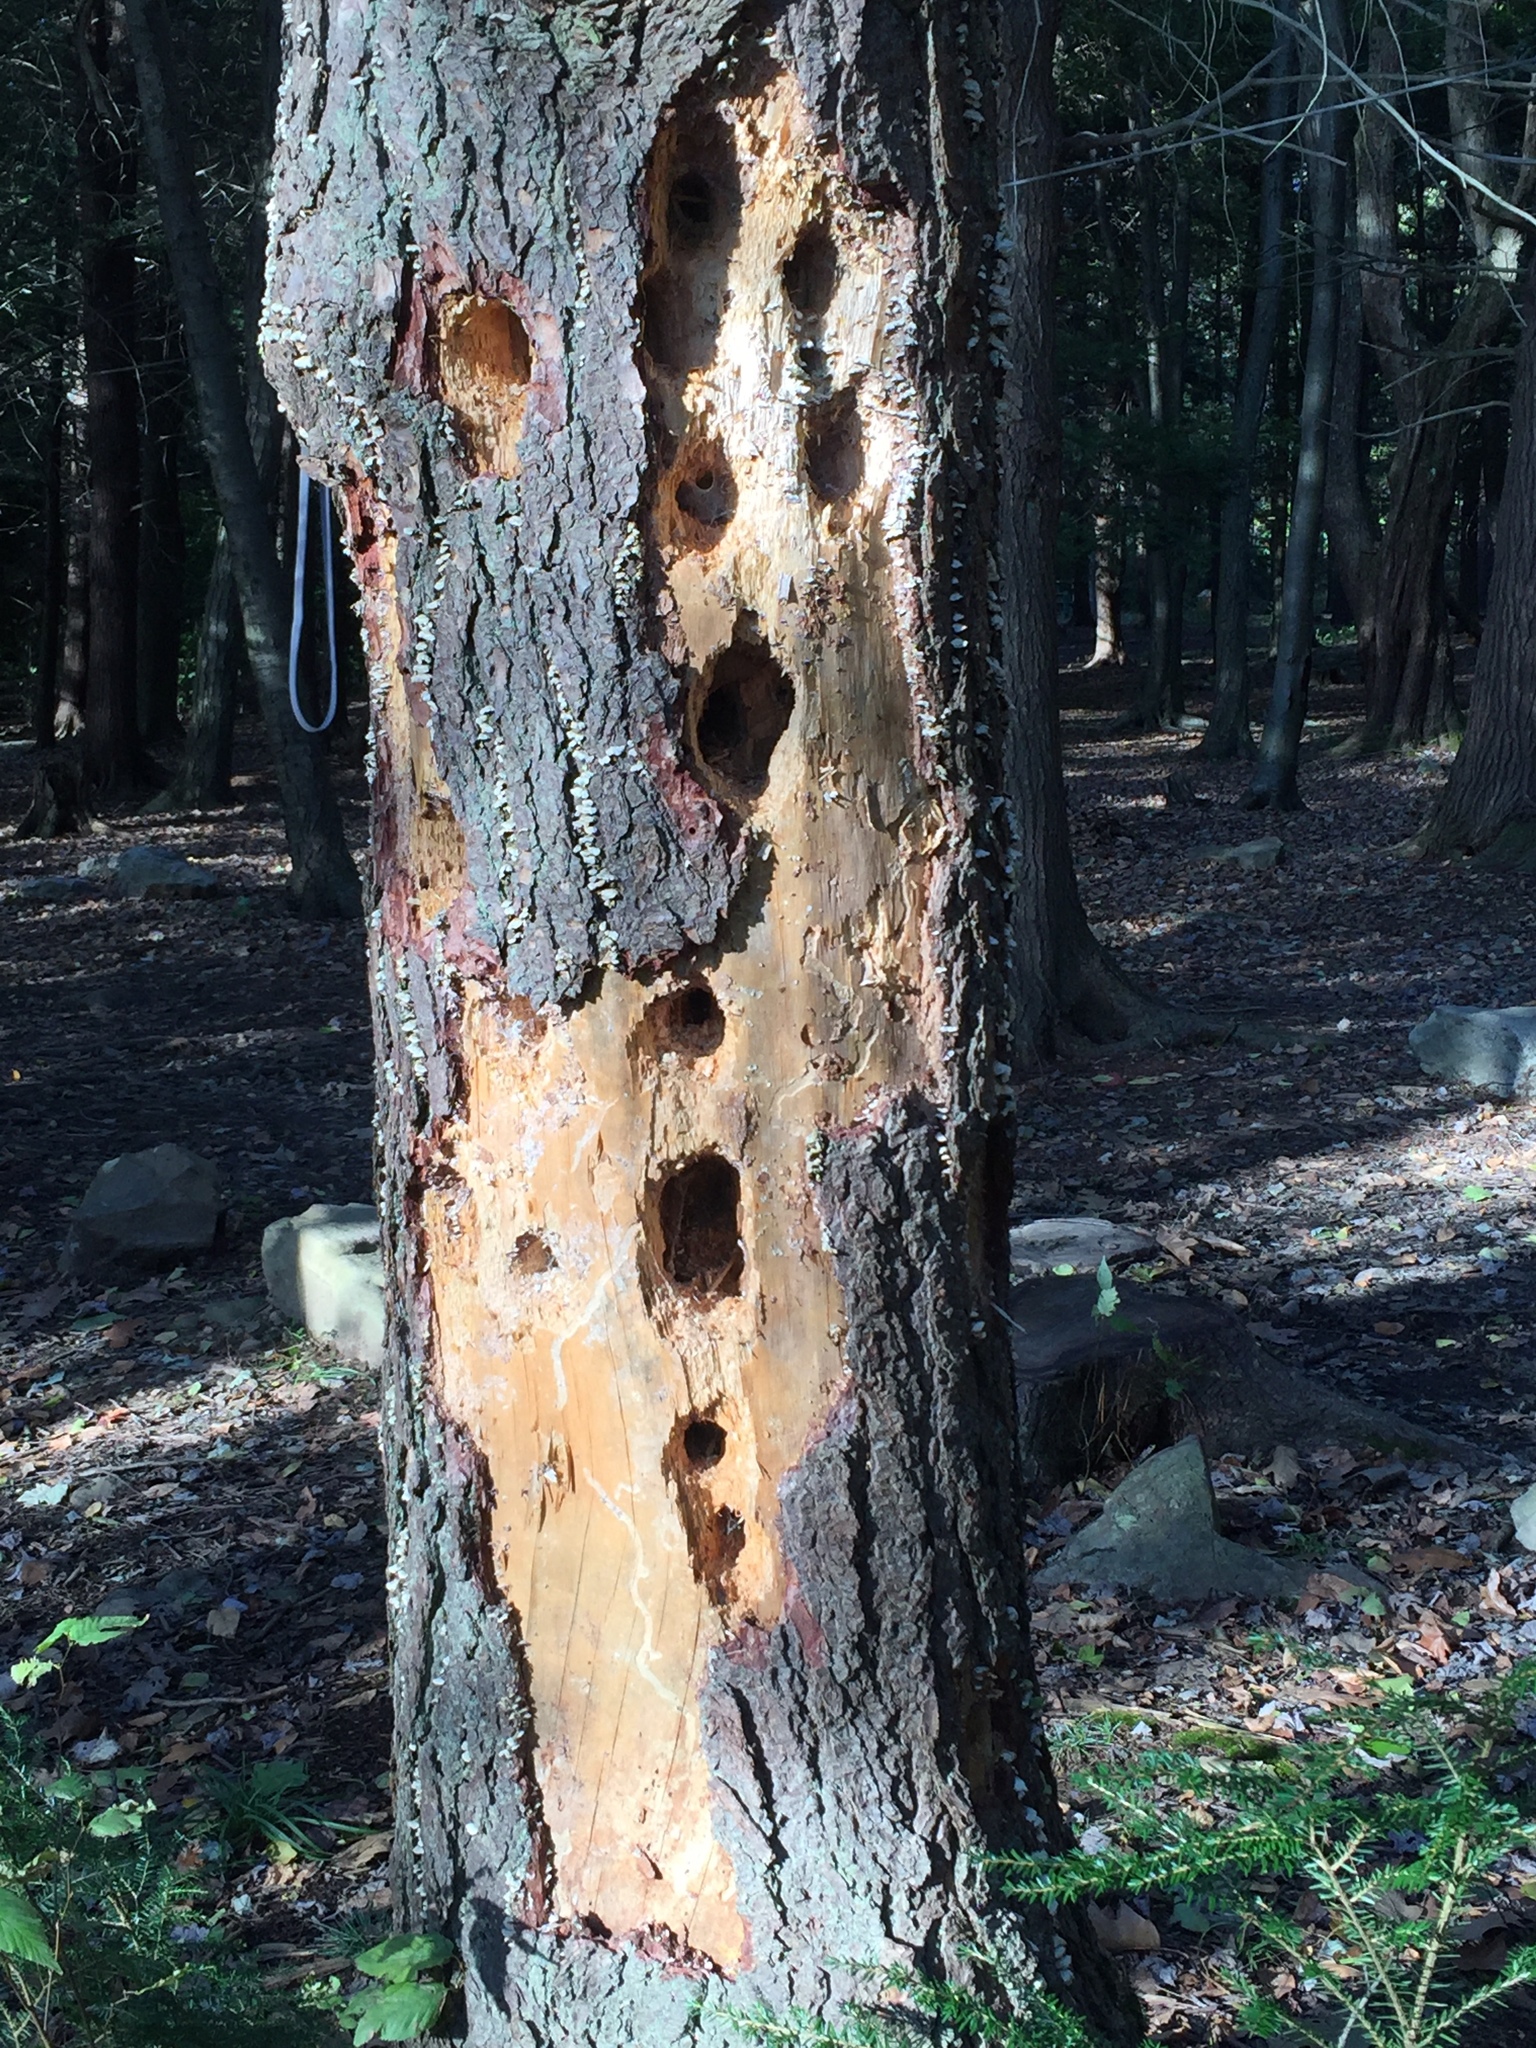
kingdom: Animalia
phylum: Chordata
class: Aves
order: Piciformes
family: Picidae
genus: Dryocopus
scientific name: Dryocopus pileatus
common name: Pileated woodpecker
